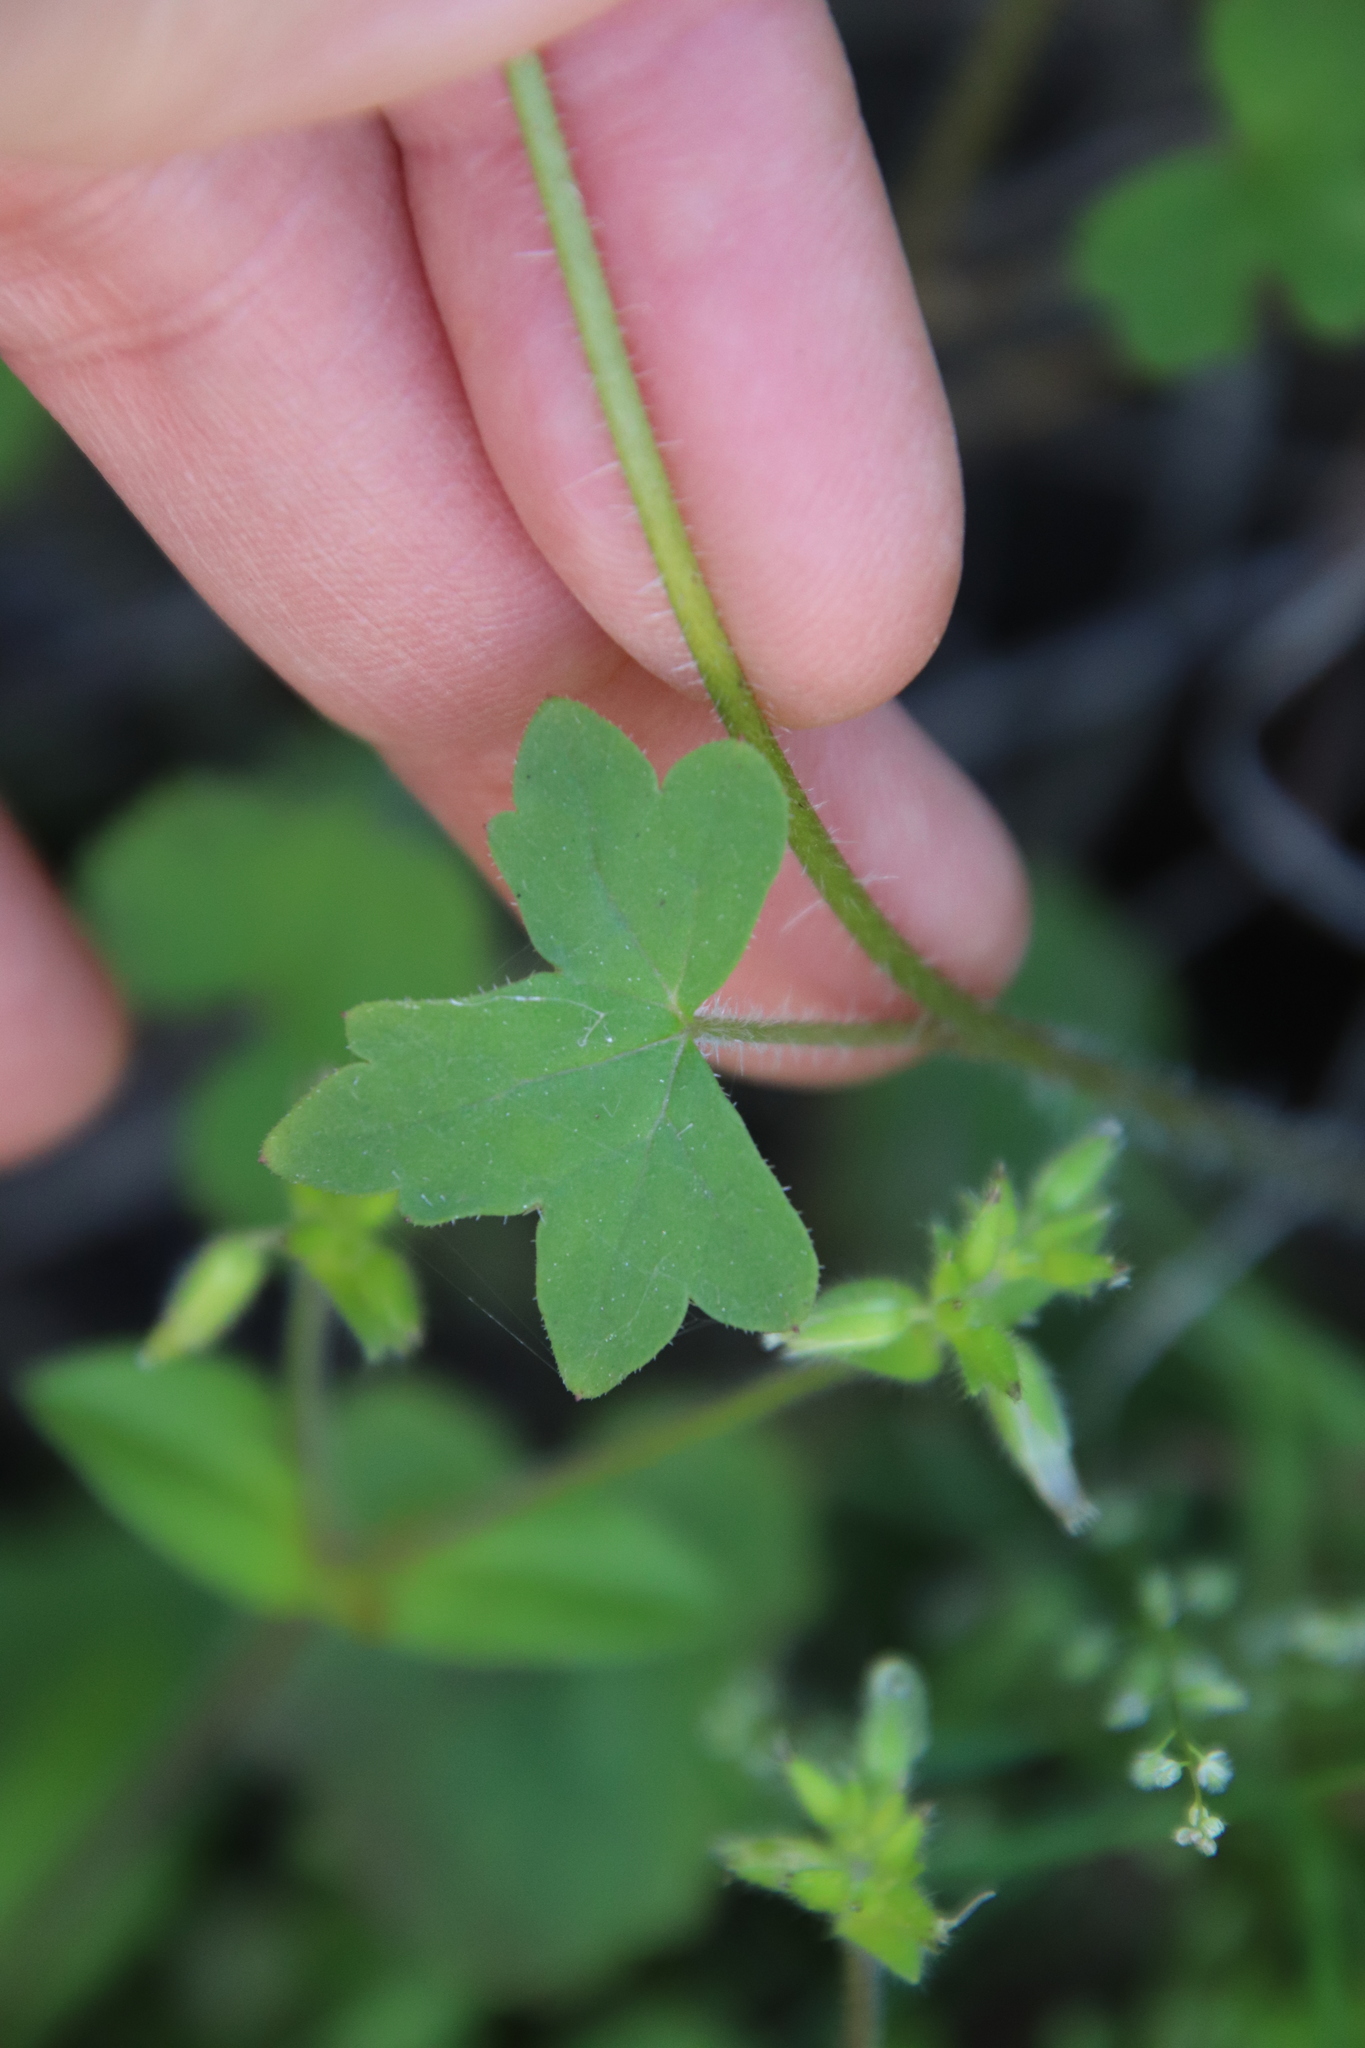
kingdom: Plantae
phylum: Tracheophyta
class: Magnoliopsida
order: Saxifragales
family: Saxifragaceae
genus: Lithophragma
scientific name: Lithophragma affine
